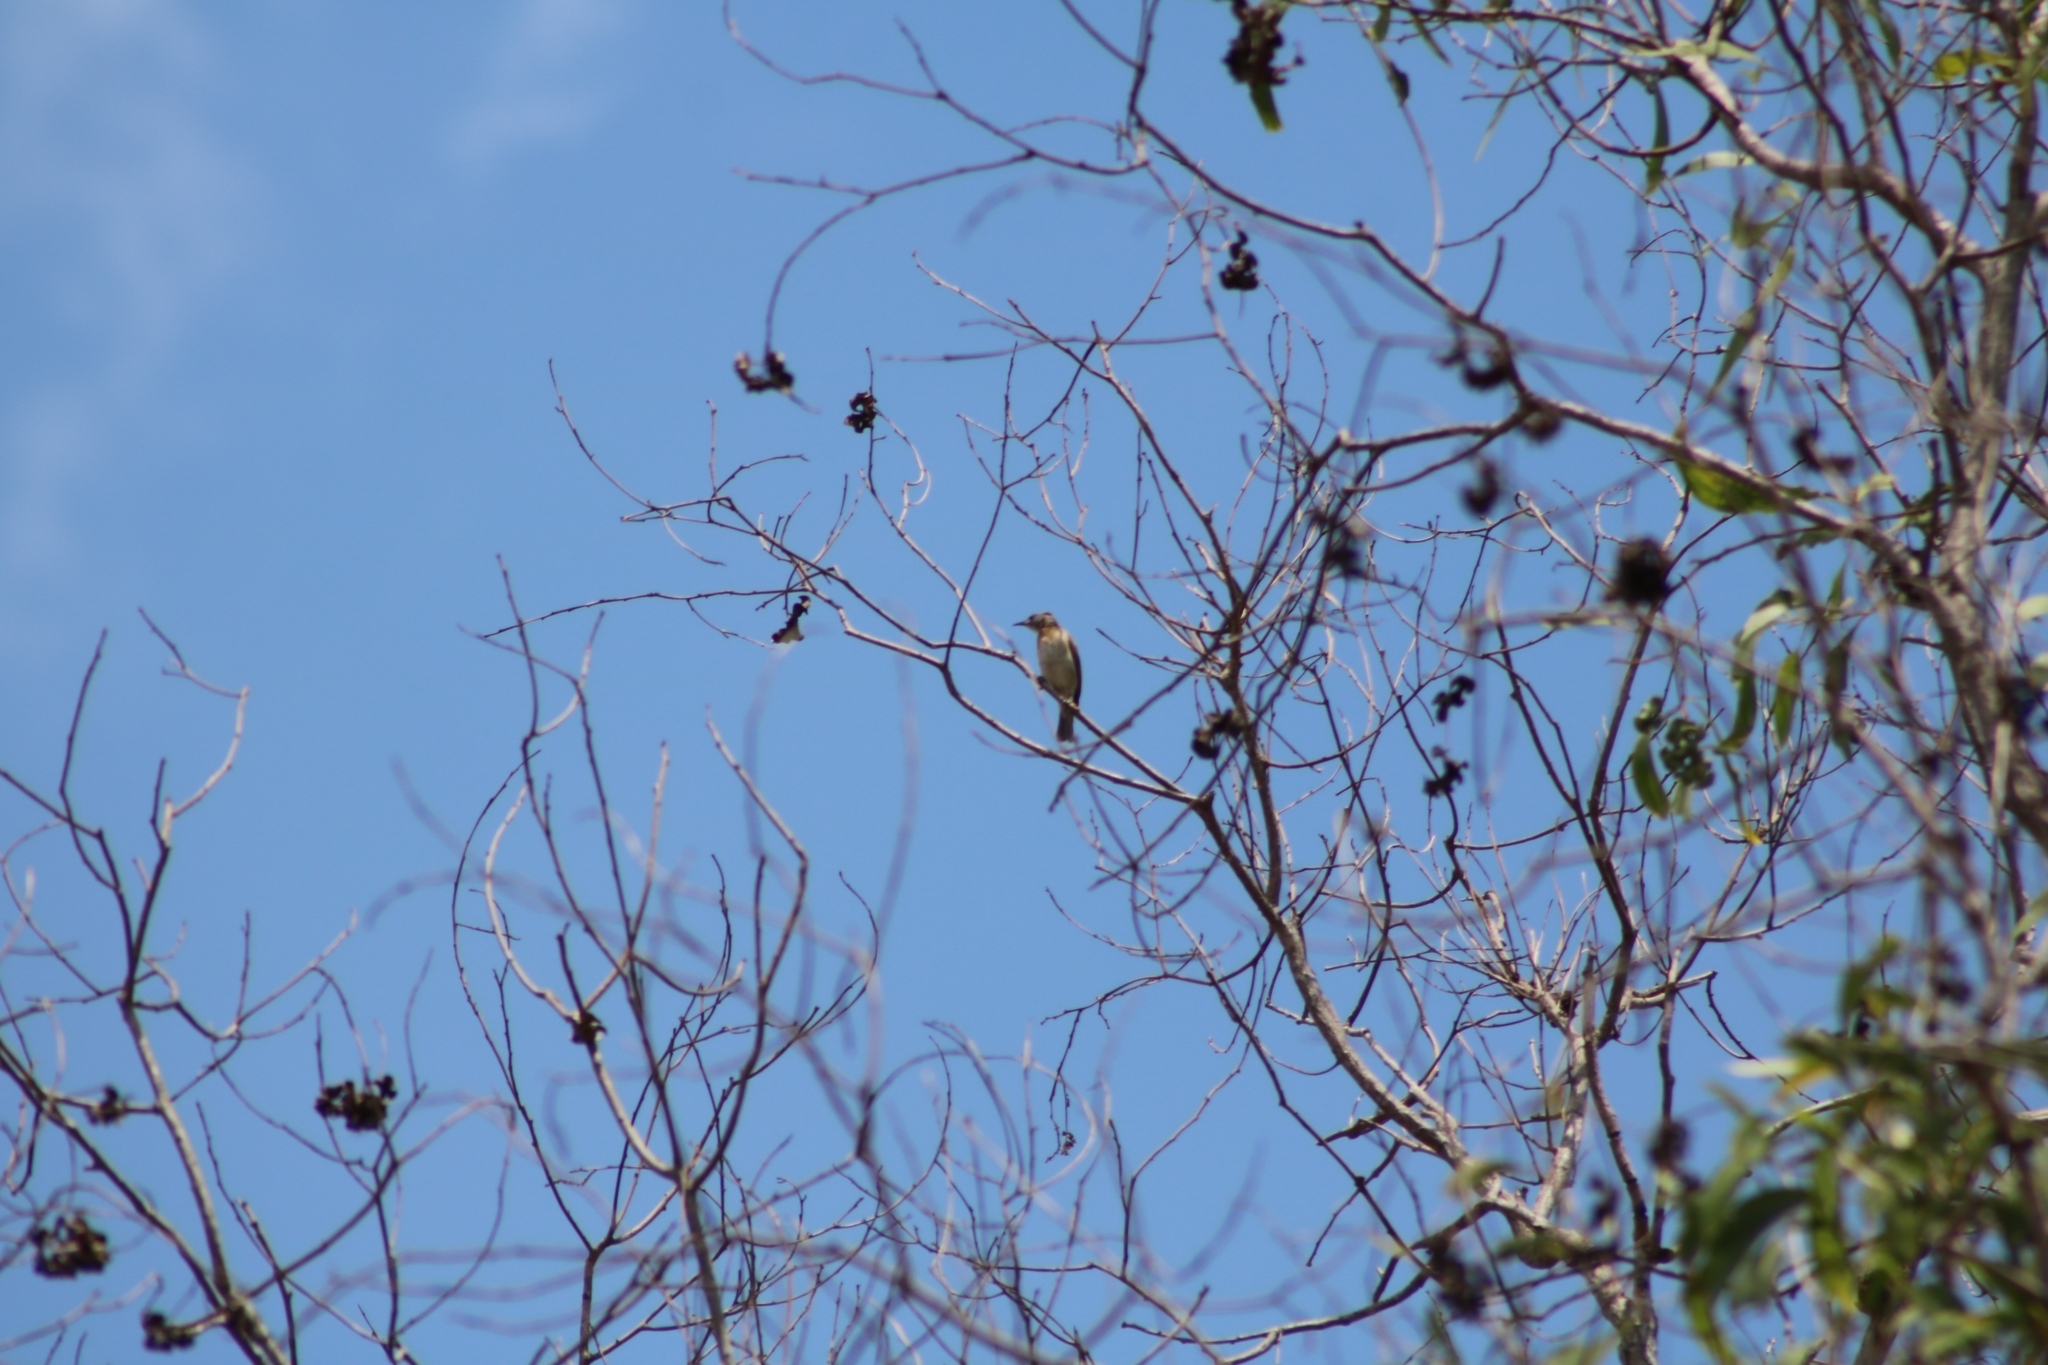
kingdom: Animalia
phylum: Chordata
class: Aves
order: Passeriformes
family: Meliphagidae
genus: Philemon
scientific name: Philemon citreogularis
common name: Little friarbird
